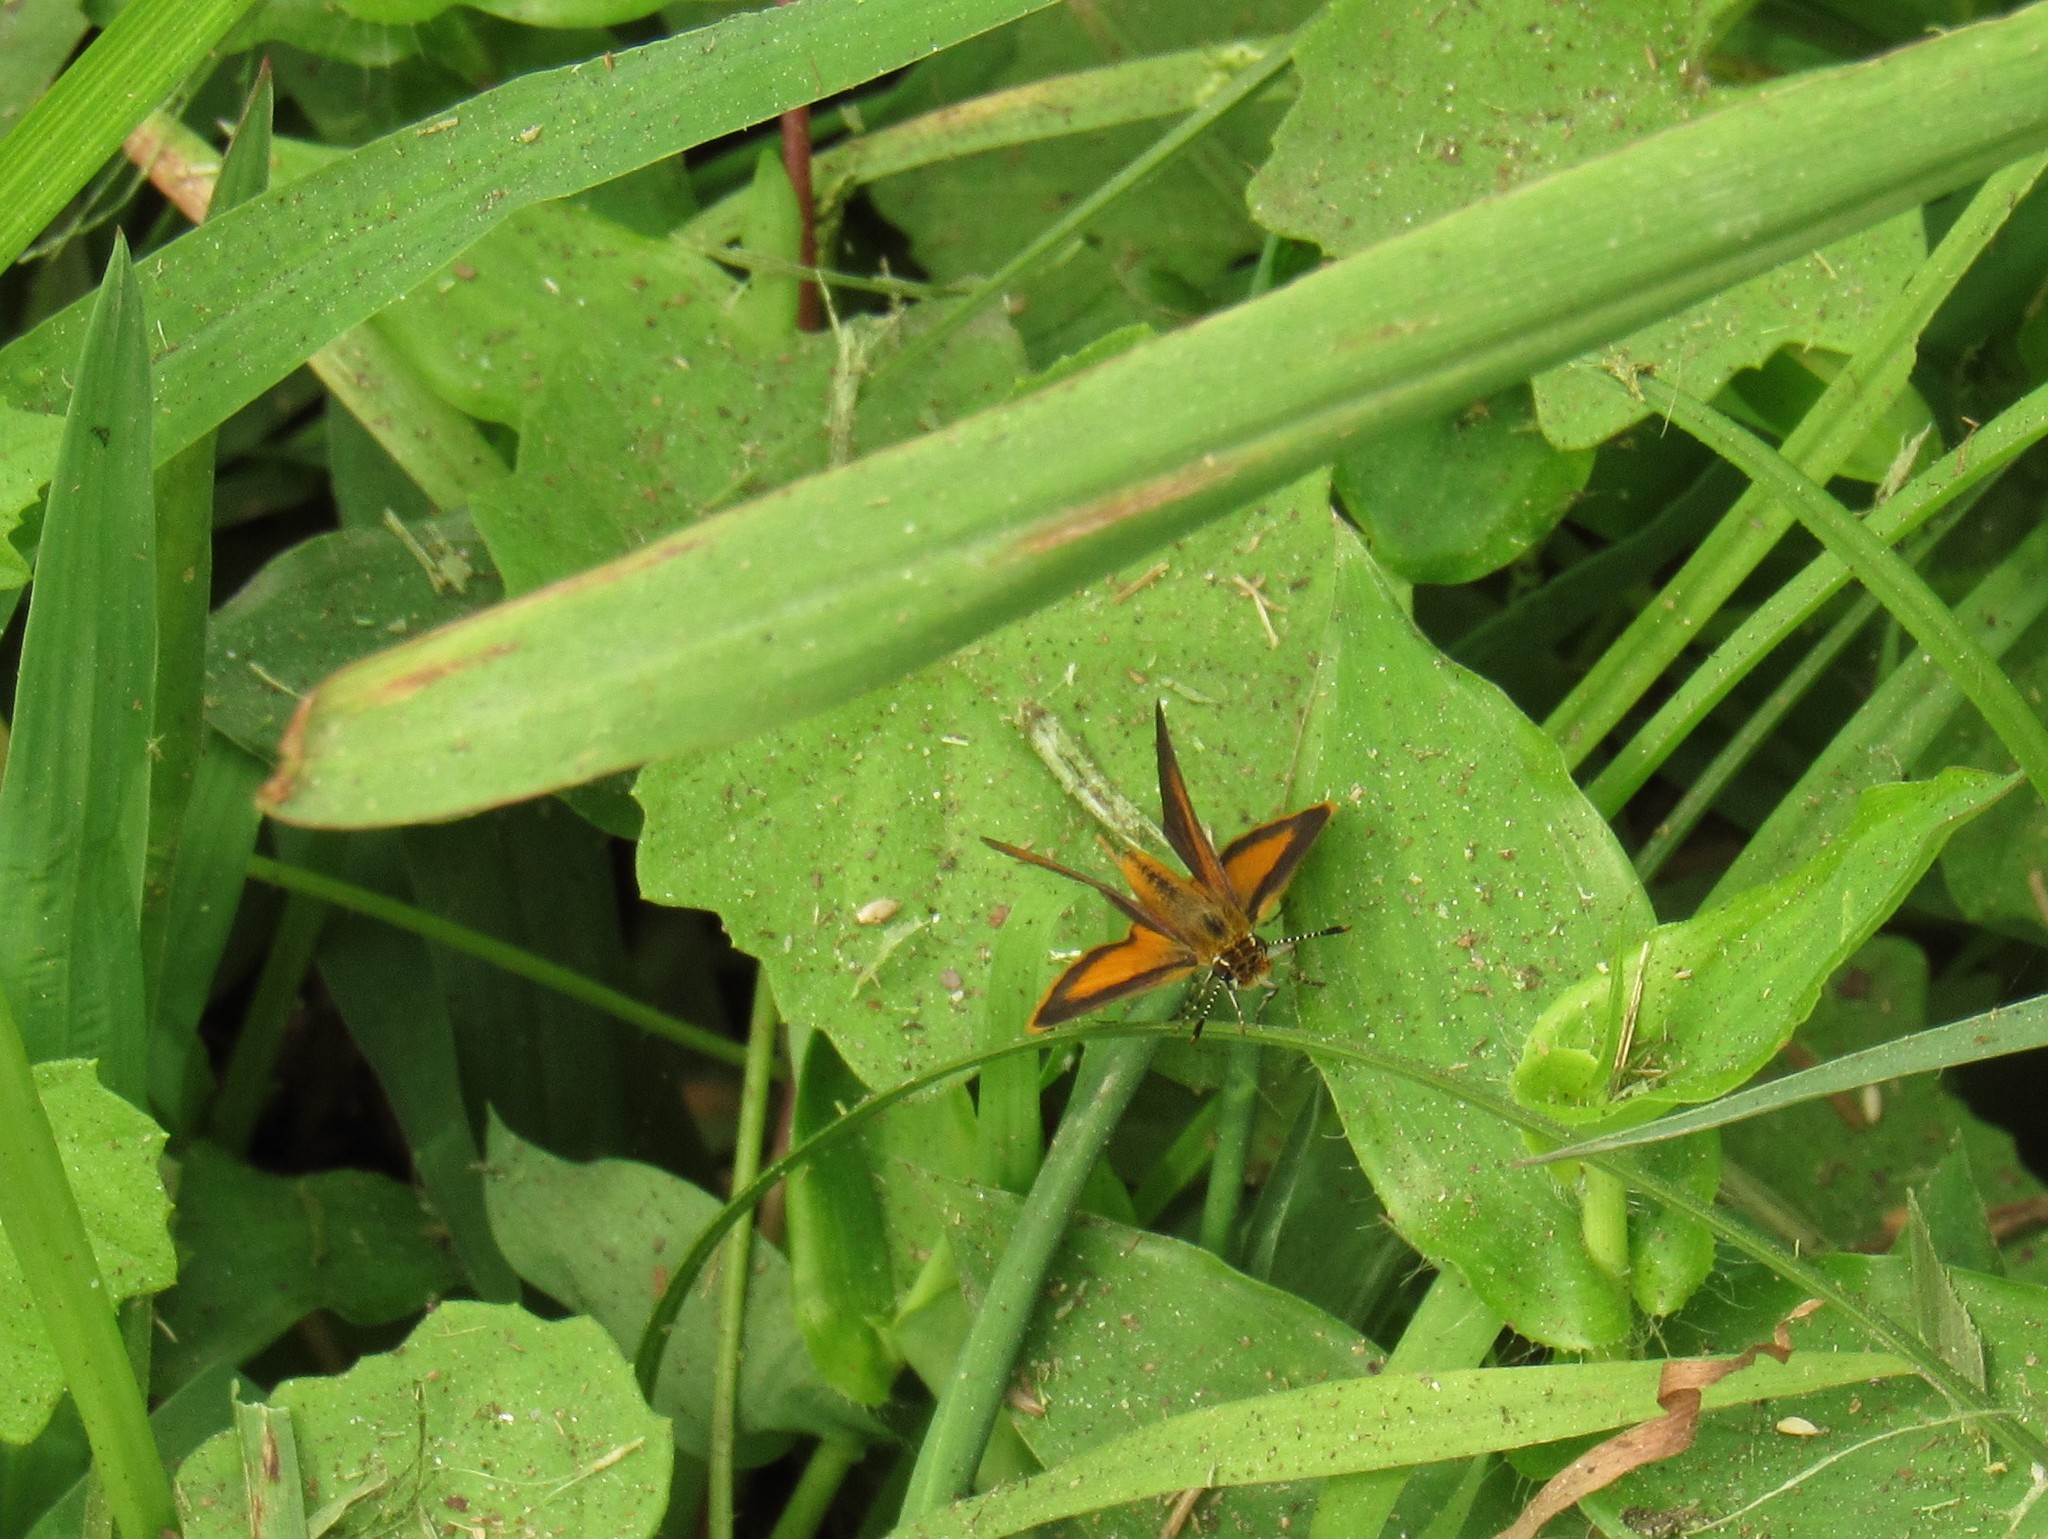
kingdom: Animalia
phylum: Arthropoda
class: Insecta
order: Lepidoptera
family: Hesperiidae
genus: Ancyloxypha
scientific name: Ancyloxypha numitor
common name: Least skipper
